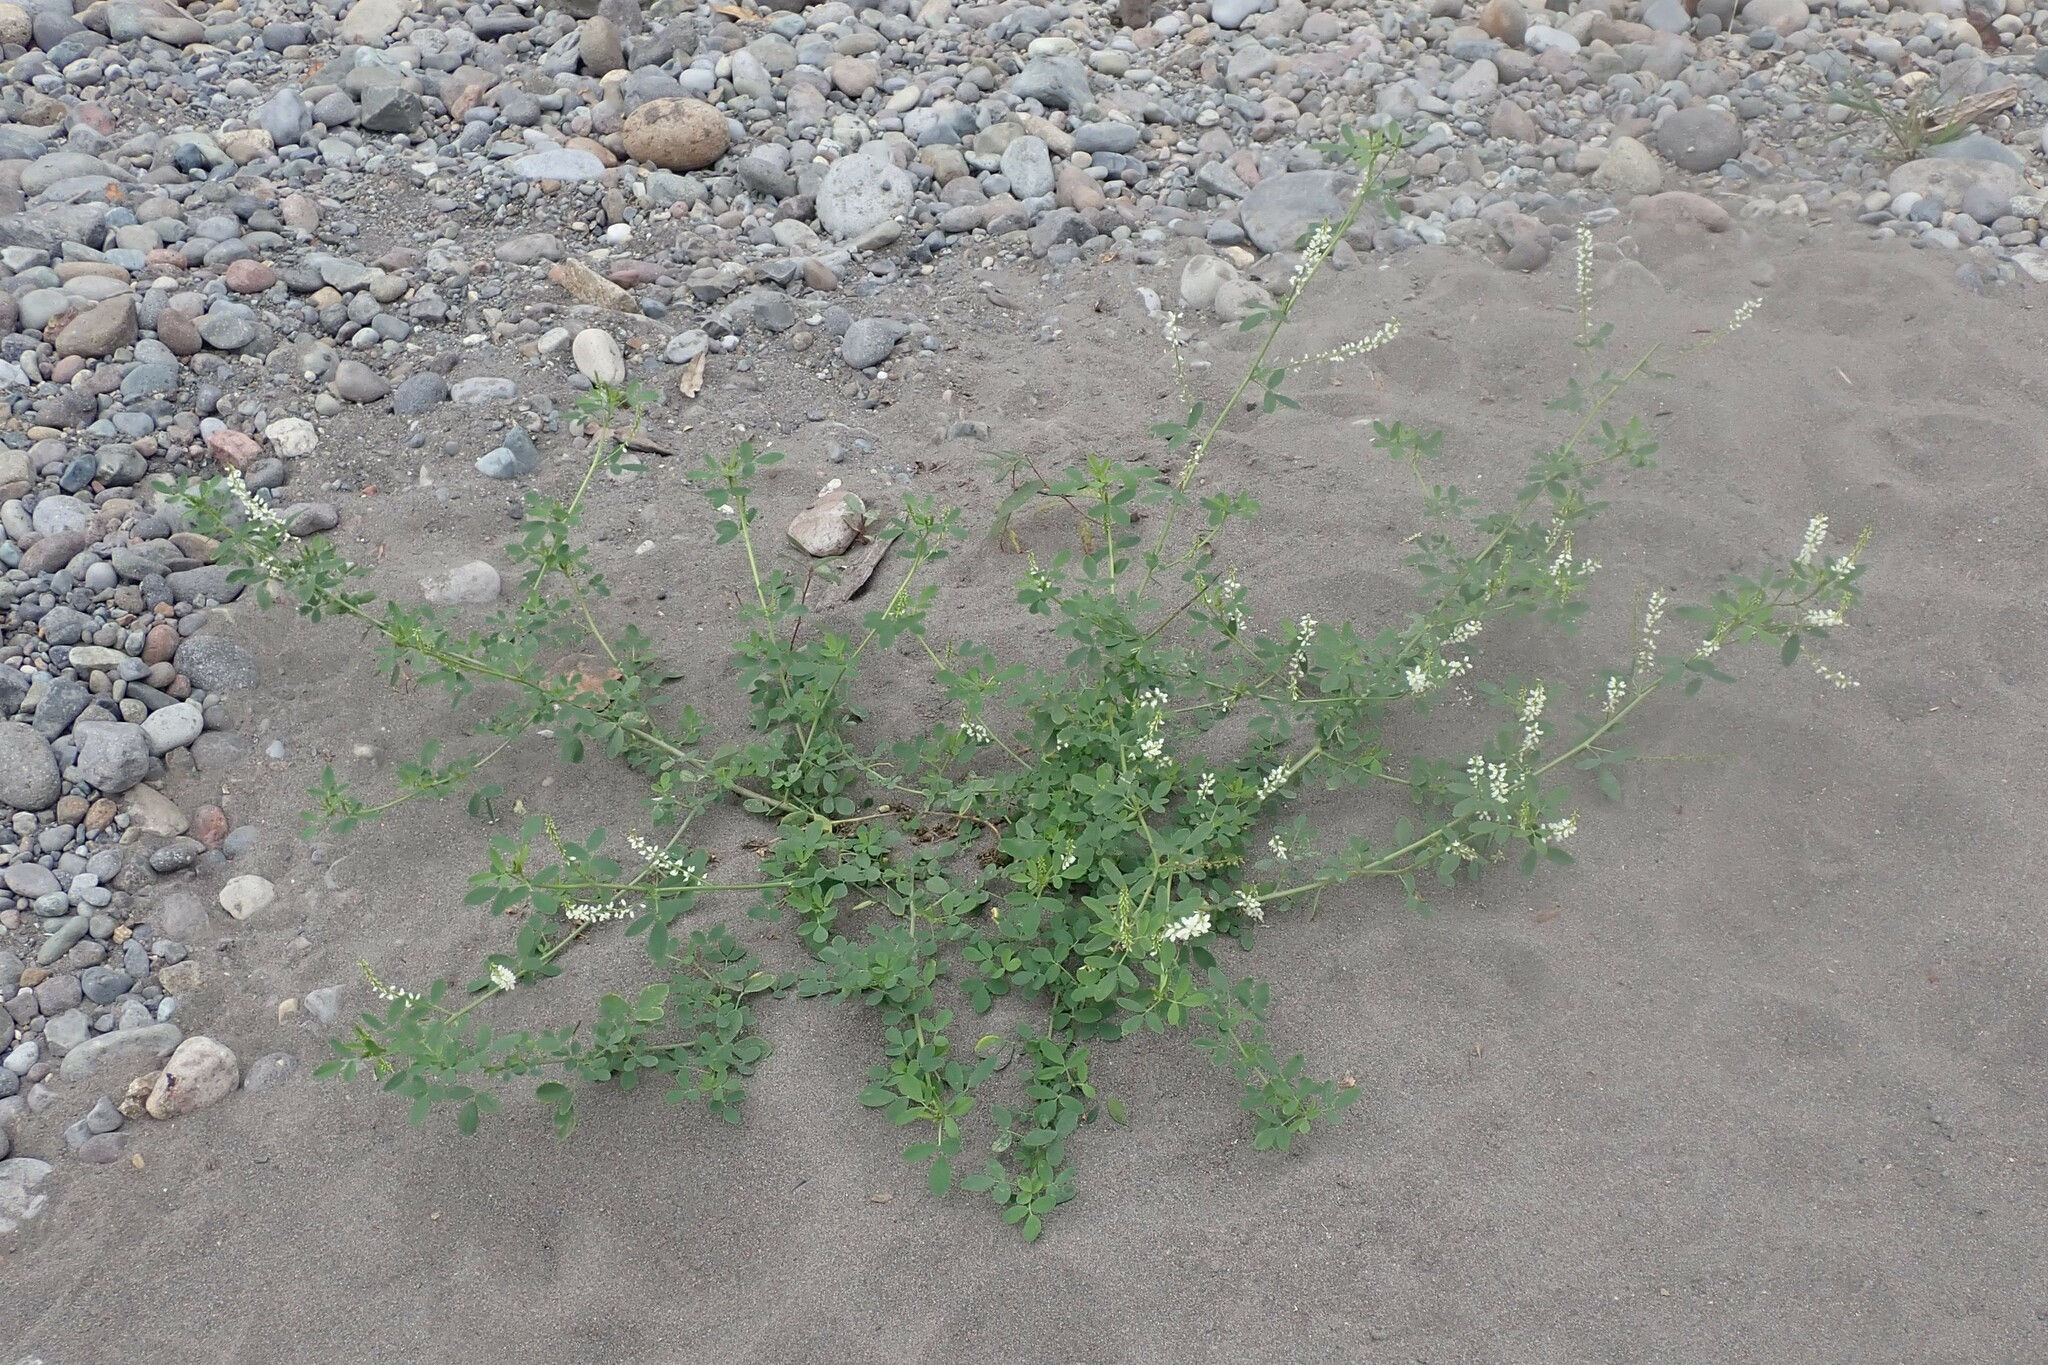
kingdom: Plantae
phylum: Tracheophyta
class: Magnoliopsida
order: Fabales
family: Fabaceae
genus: Melilotus
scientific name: Melilotus albus
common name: White melilot
